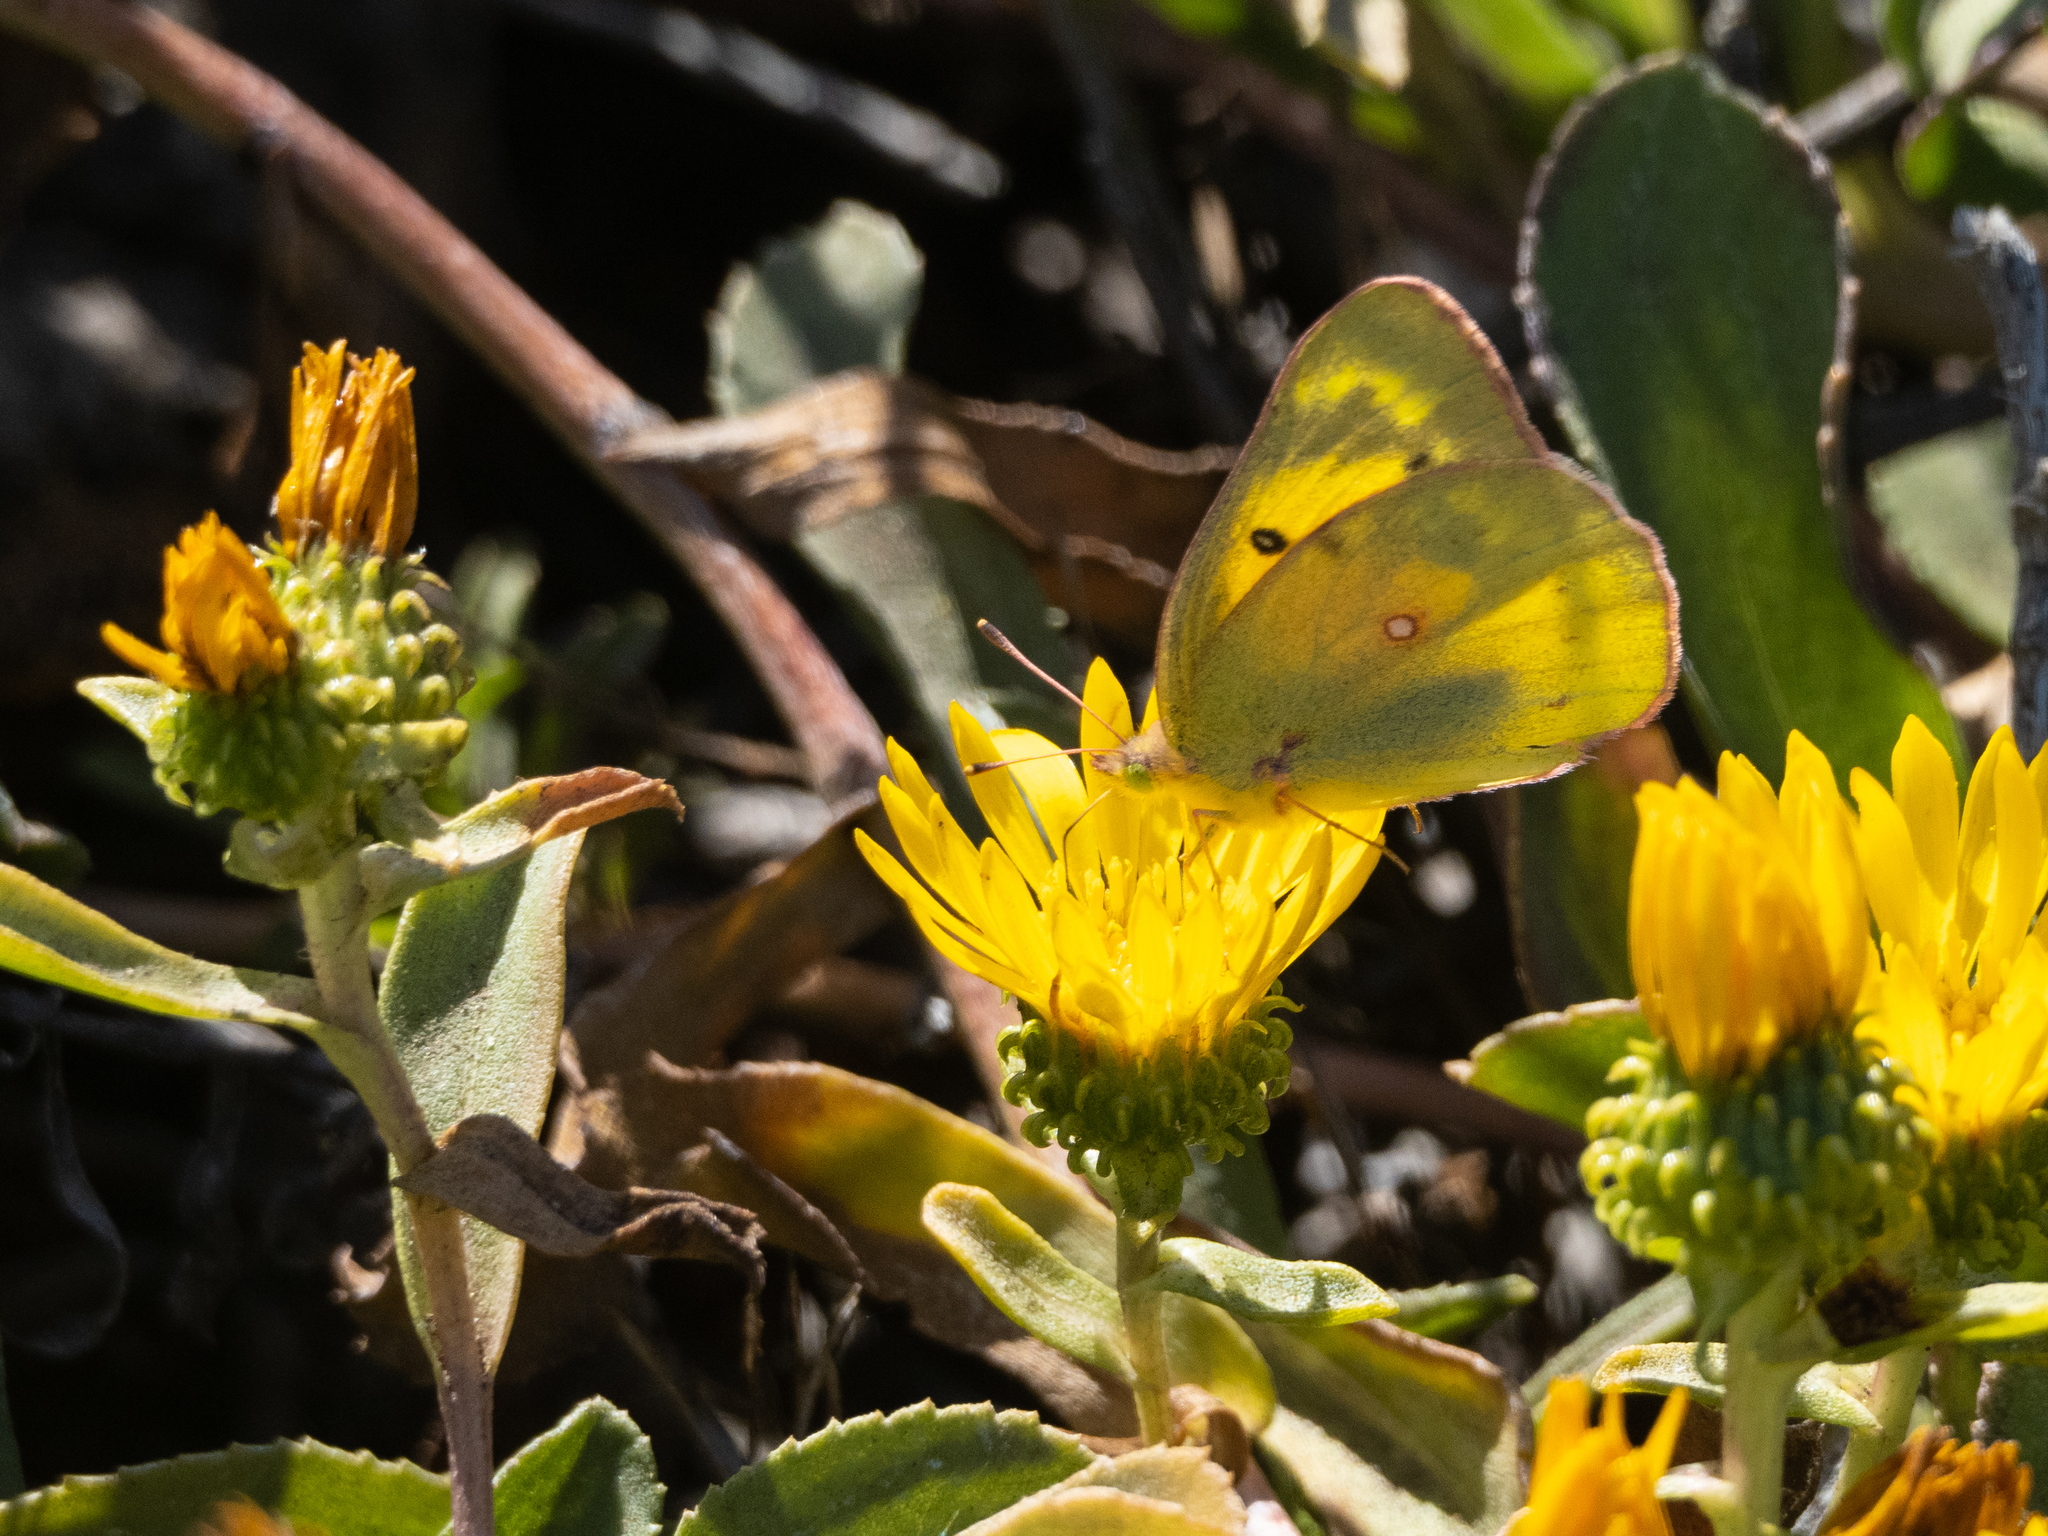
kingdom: Animalia
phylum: Arthropoda
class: Insecta
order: Lepidoptera
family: Pieridae
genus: Colias
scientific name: Colias eurytheme
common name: Alfalfa butterfly
